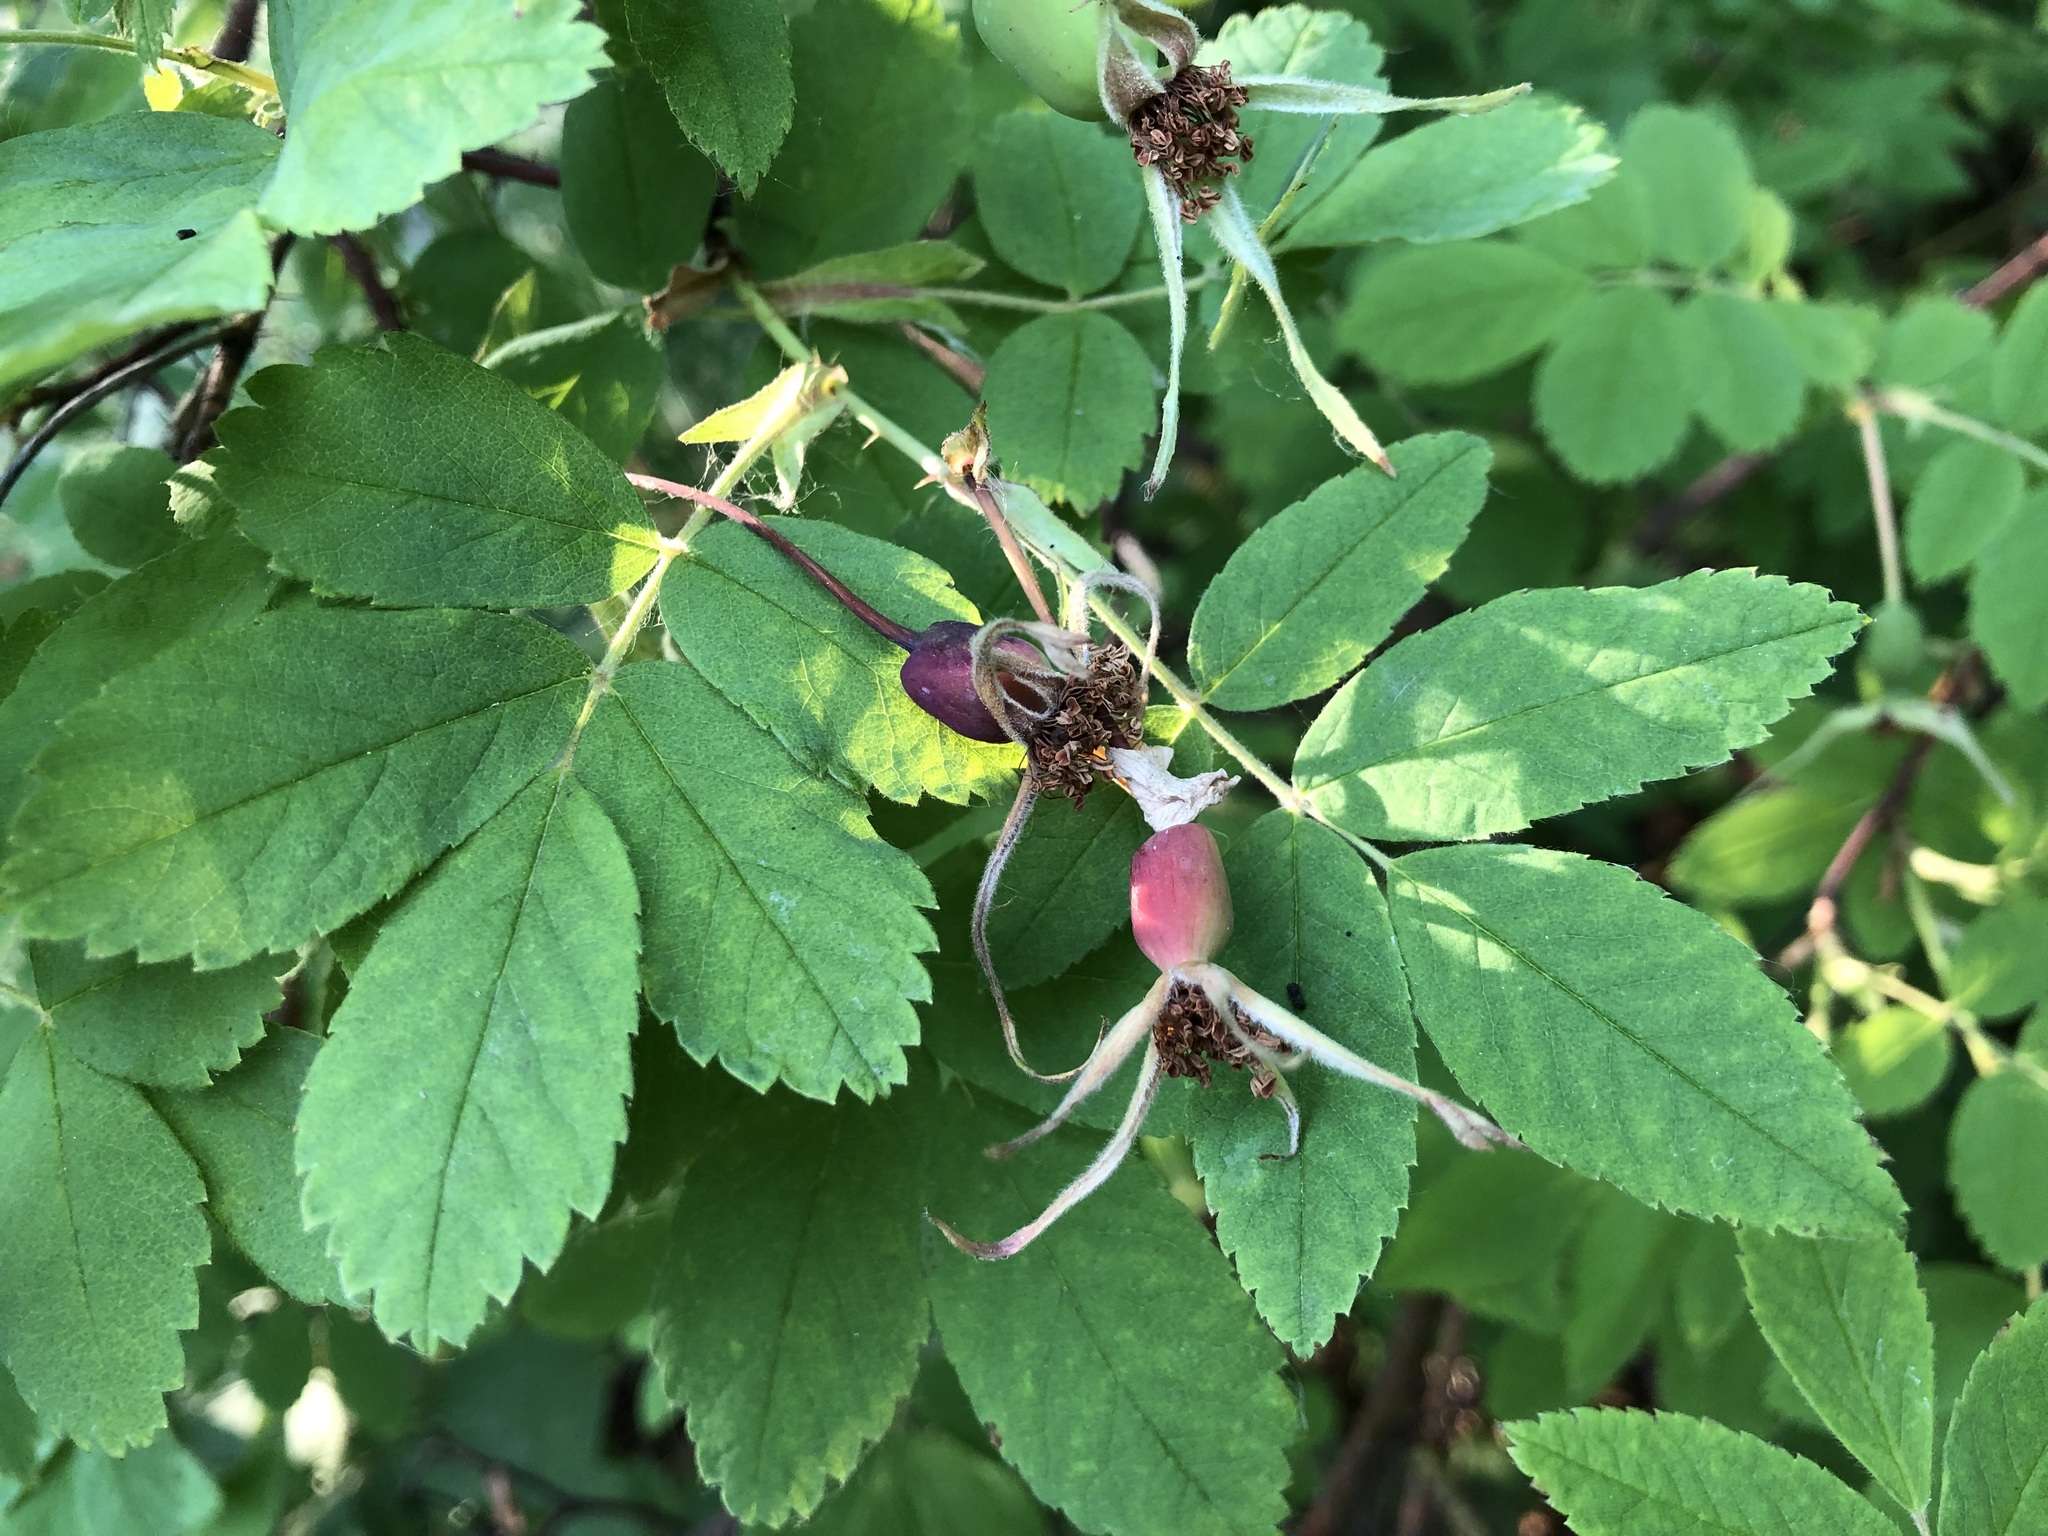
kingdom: Plantae
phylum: Tracheophyta
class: Magnoliopsida
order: Rosales
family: Rosaceae
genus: Rosa
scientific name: Rosa acicularis
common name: Prickly rose
